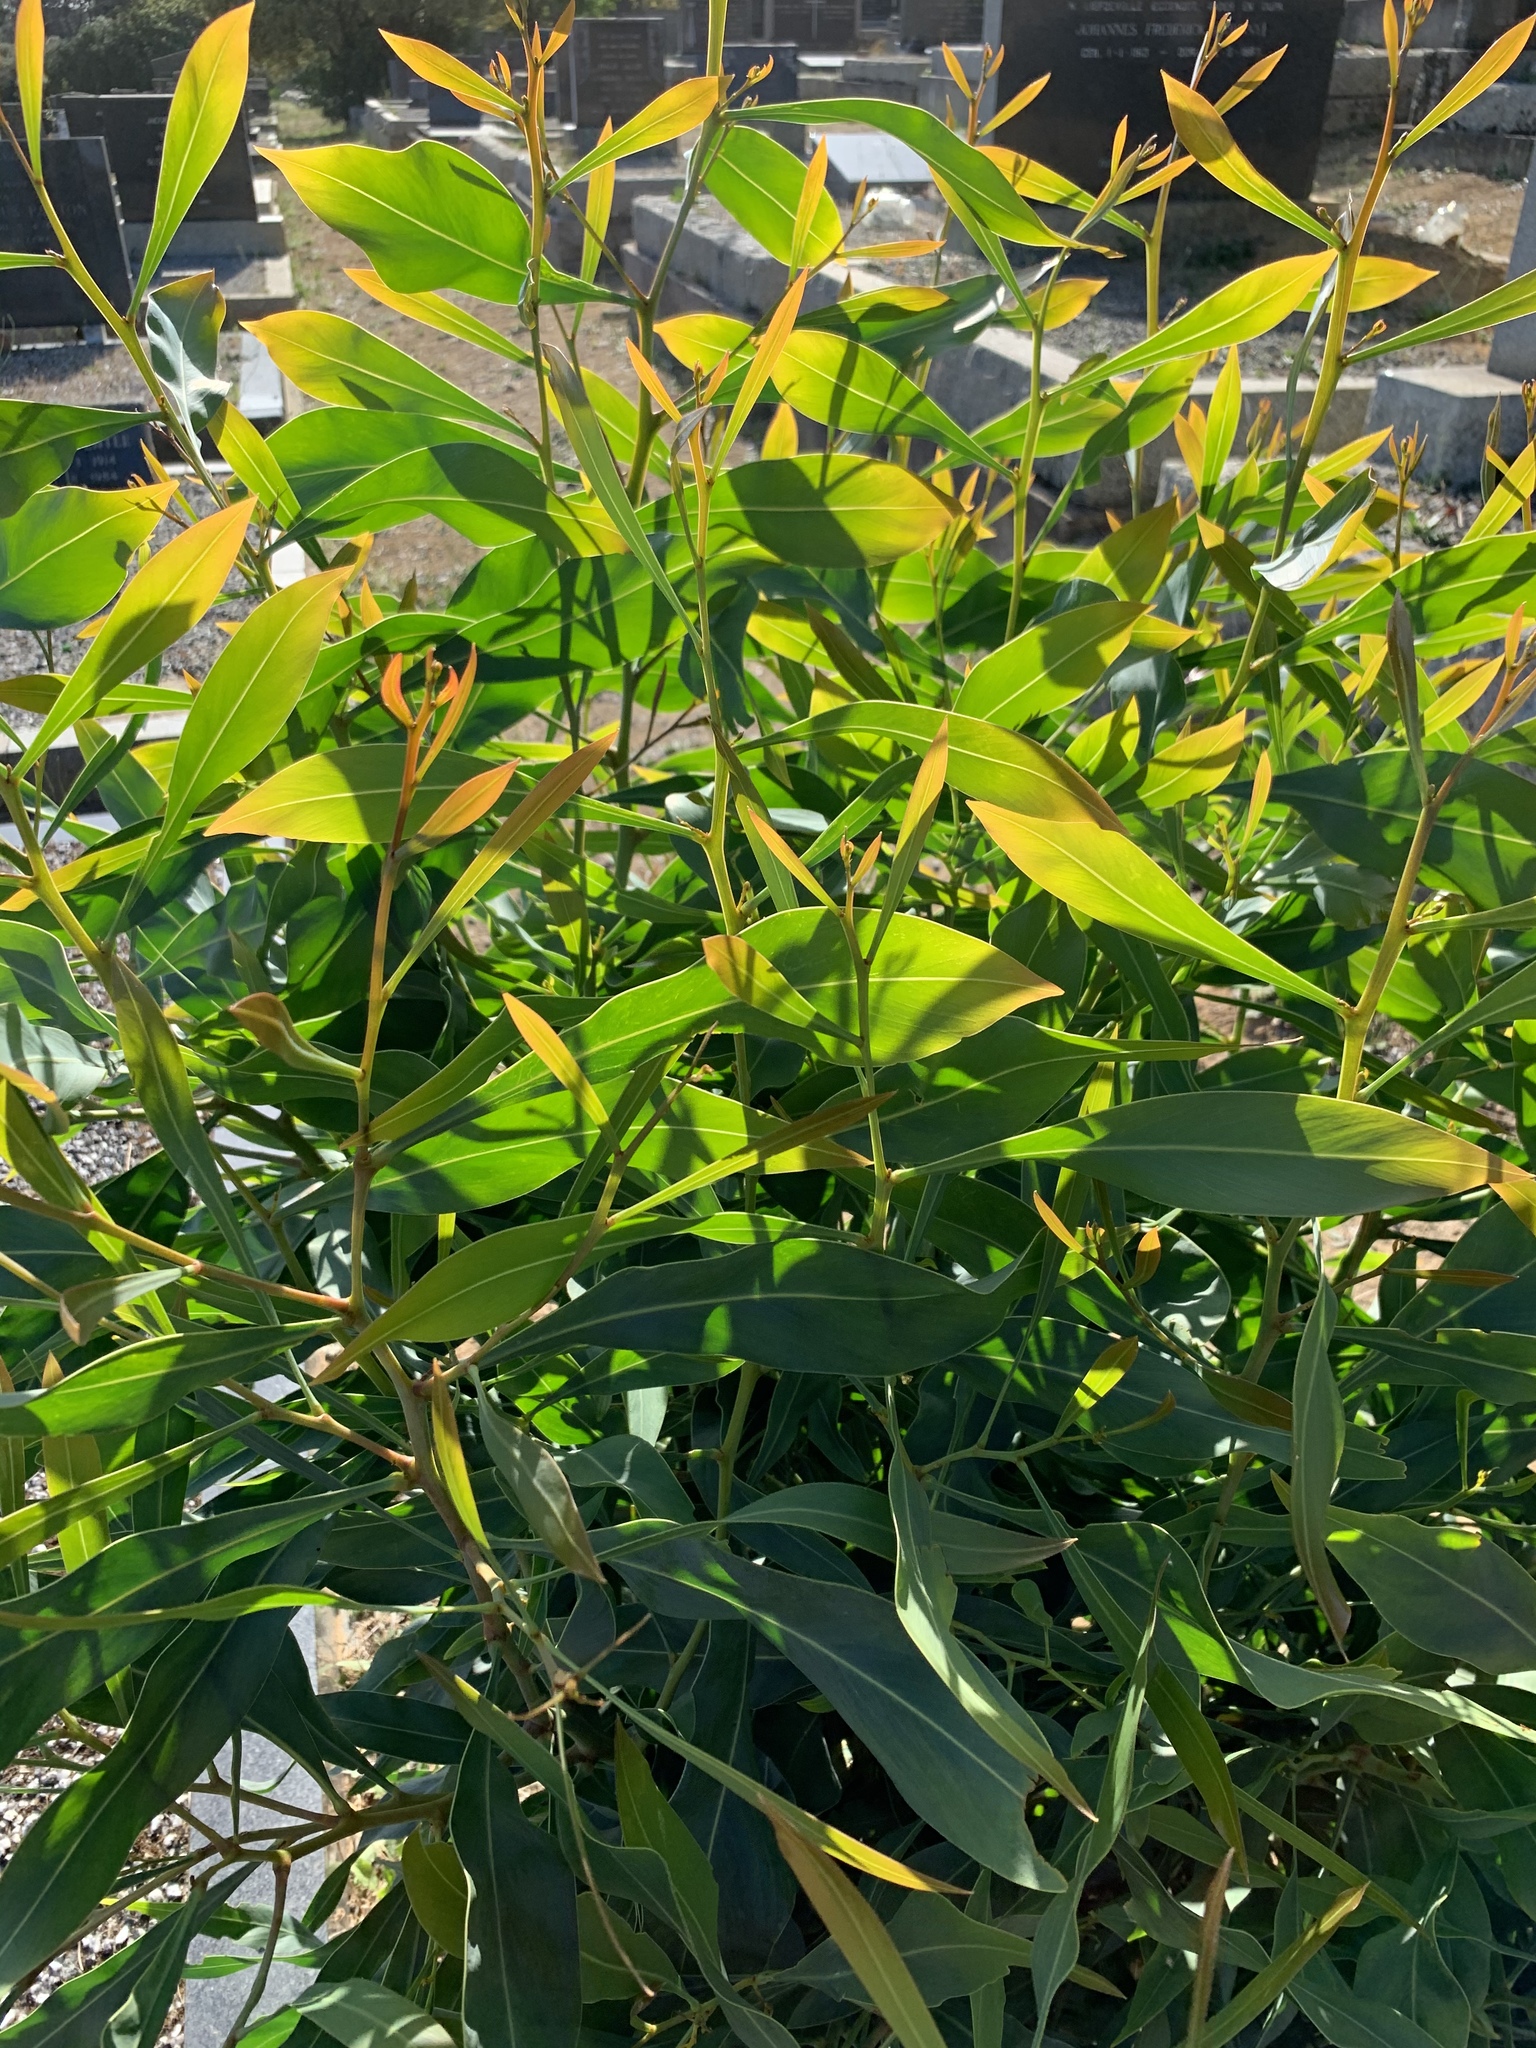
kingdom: Plantae
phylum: Tracheophyta
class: Magnoliopsida
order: Fabales
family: Fabaceae
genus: Acacia
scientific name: Acacia saligna
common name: Orange wattle
